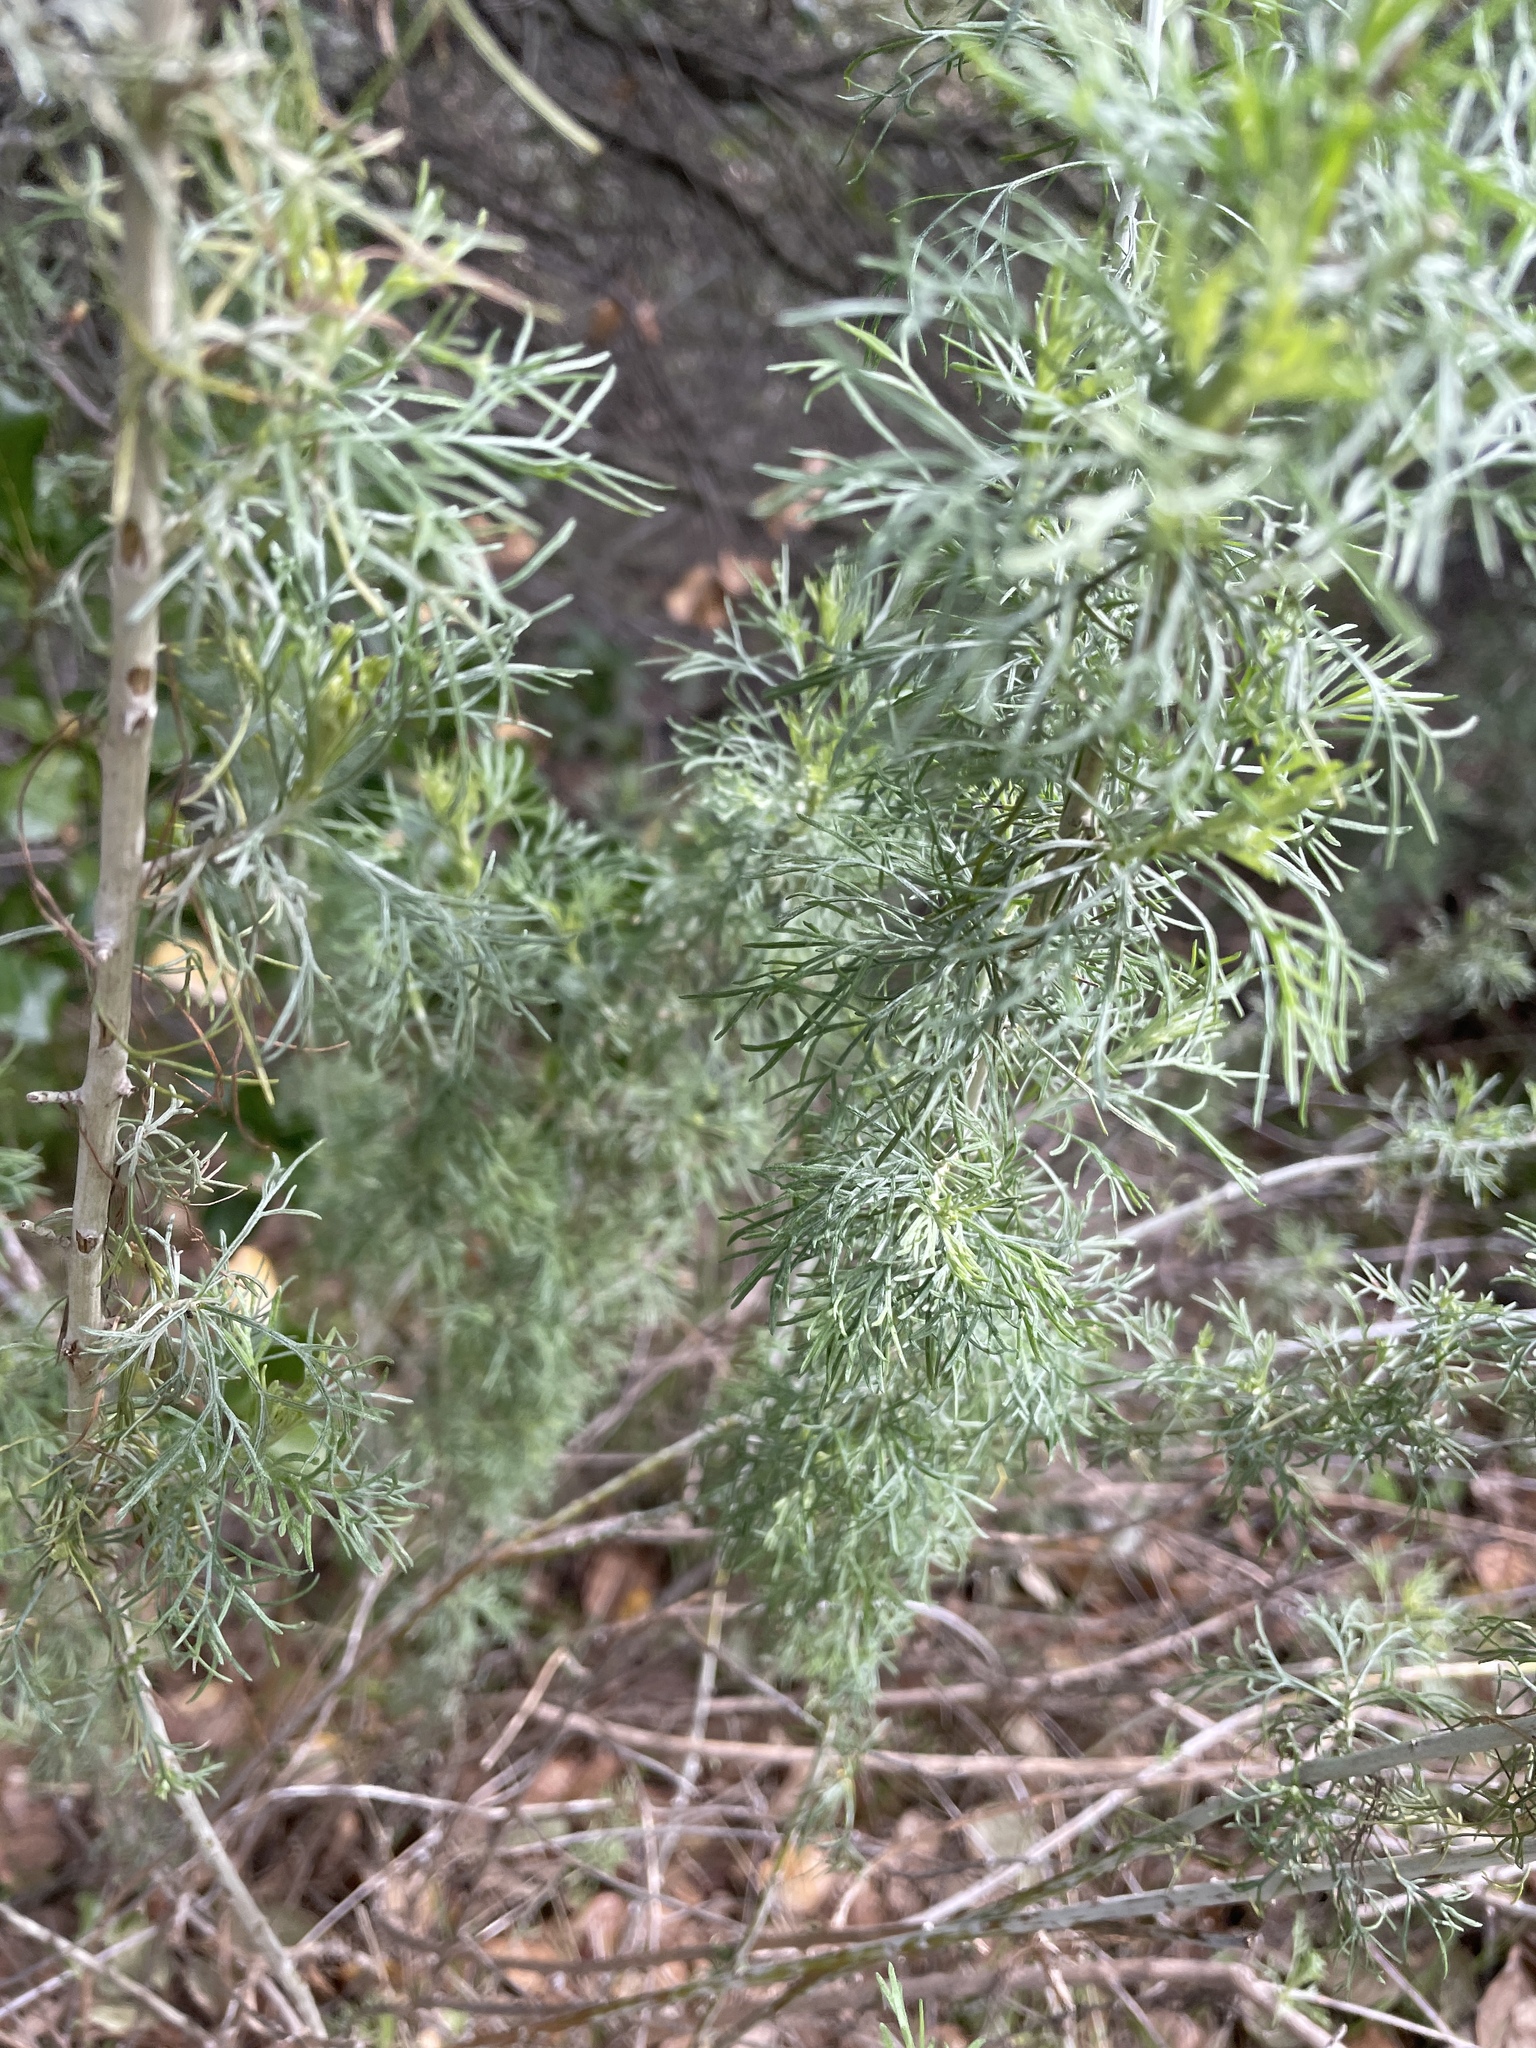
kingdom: Plantae
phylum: Tracheophyta
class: Magnoliopsida
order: Asterales
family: Asteraceae
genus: Artemisia
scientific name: Artemisia californica
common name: California sagebrush
